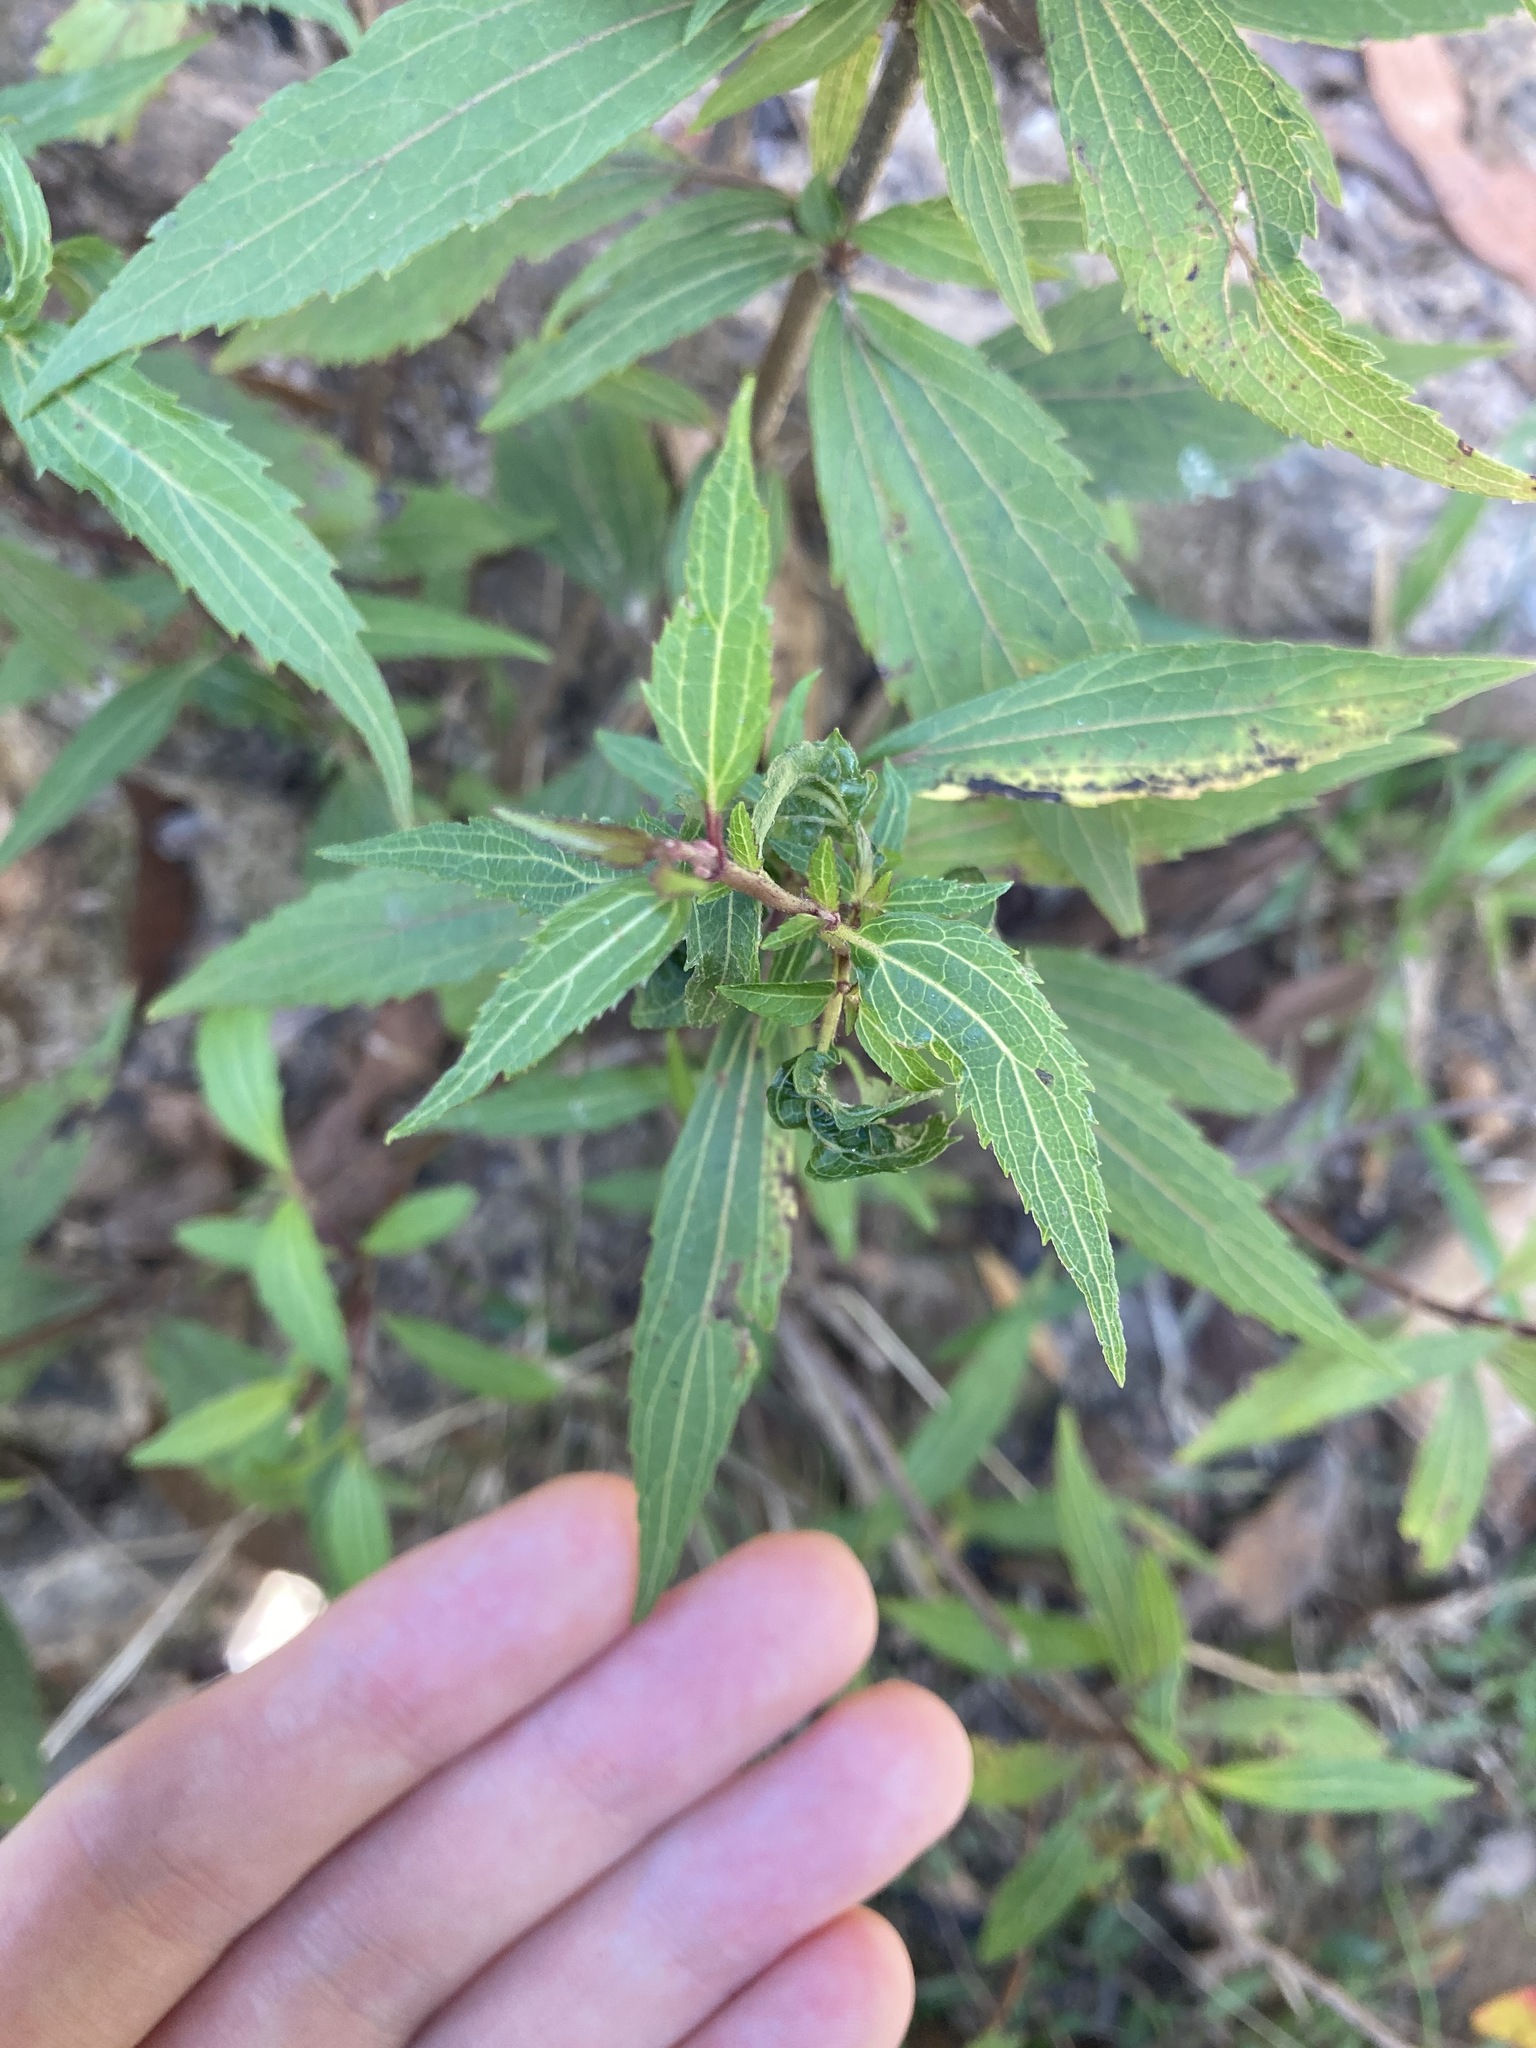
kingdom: Plantae
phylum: Tracheophyta
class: Magnoliopsida
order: Asterales
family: Asteraceae
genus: Ageratina
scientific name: Ageratina riparia
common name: Creeping croftonweed
